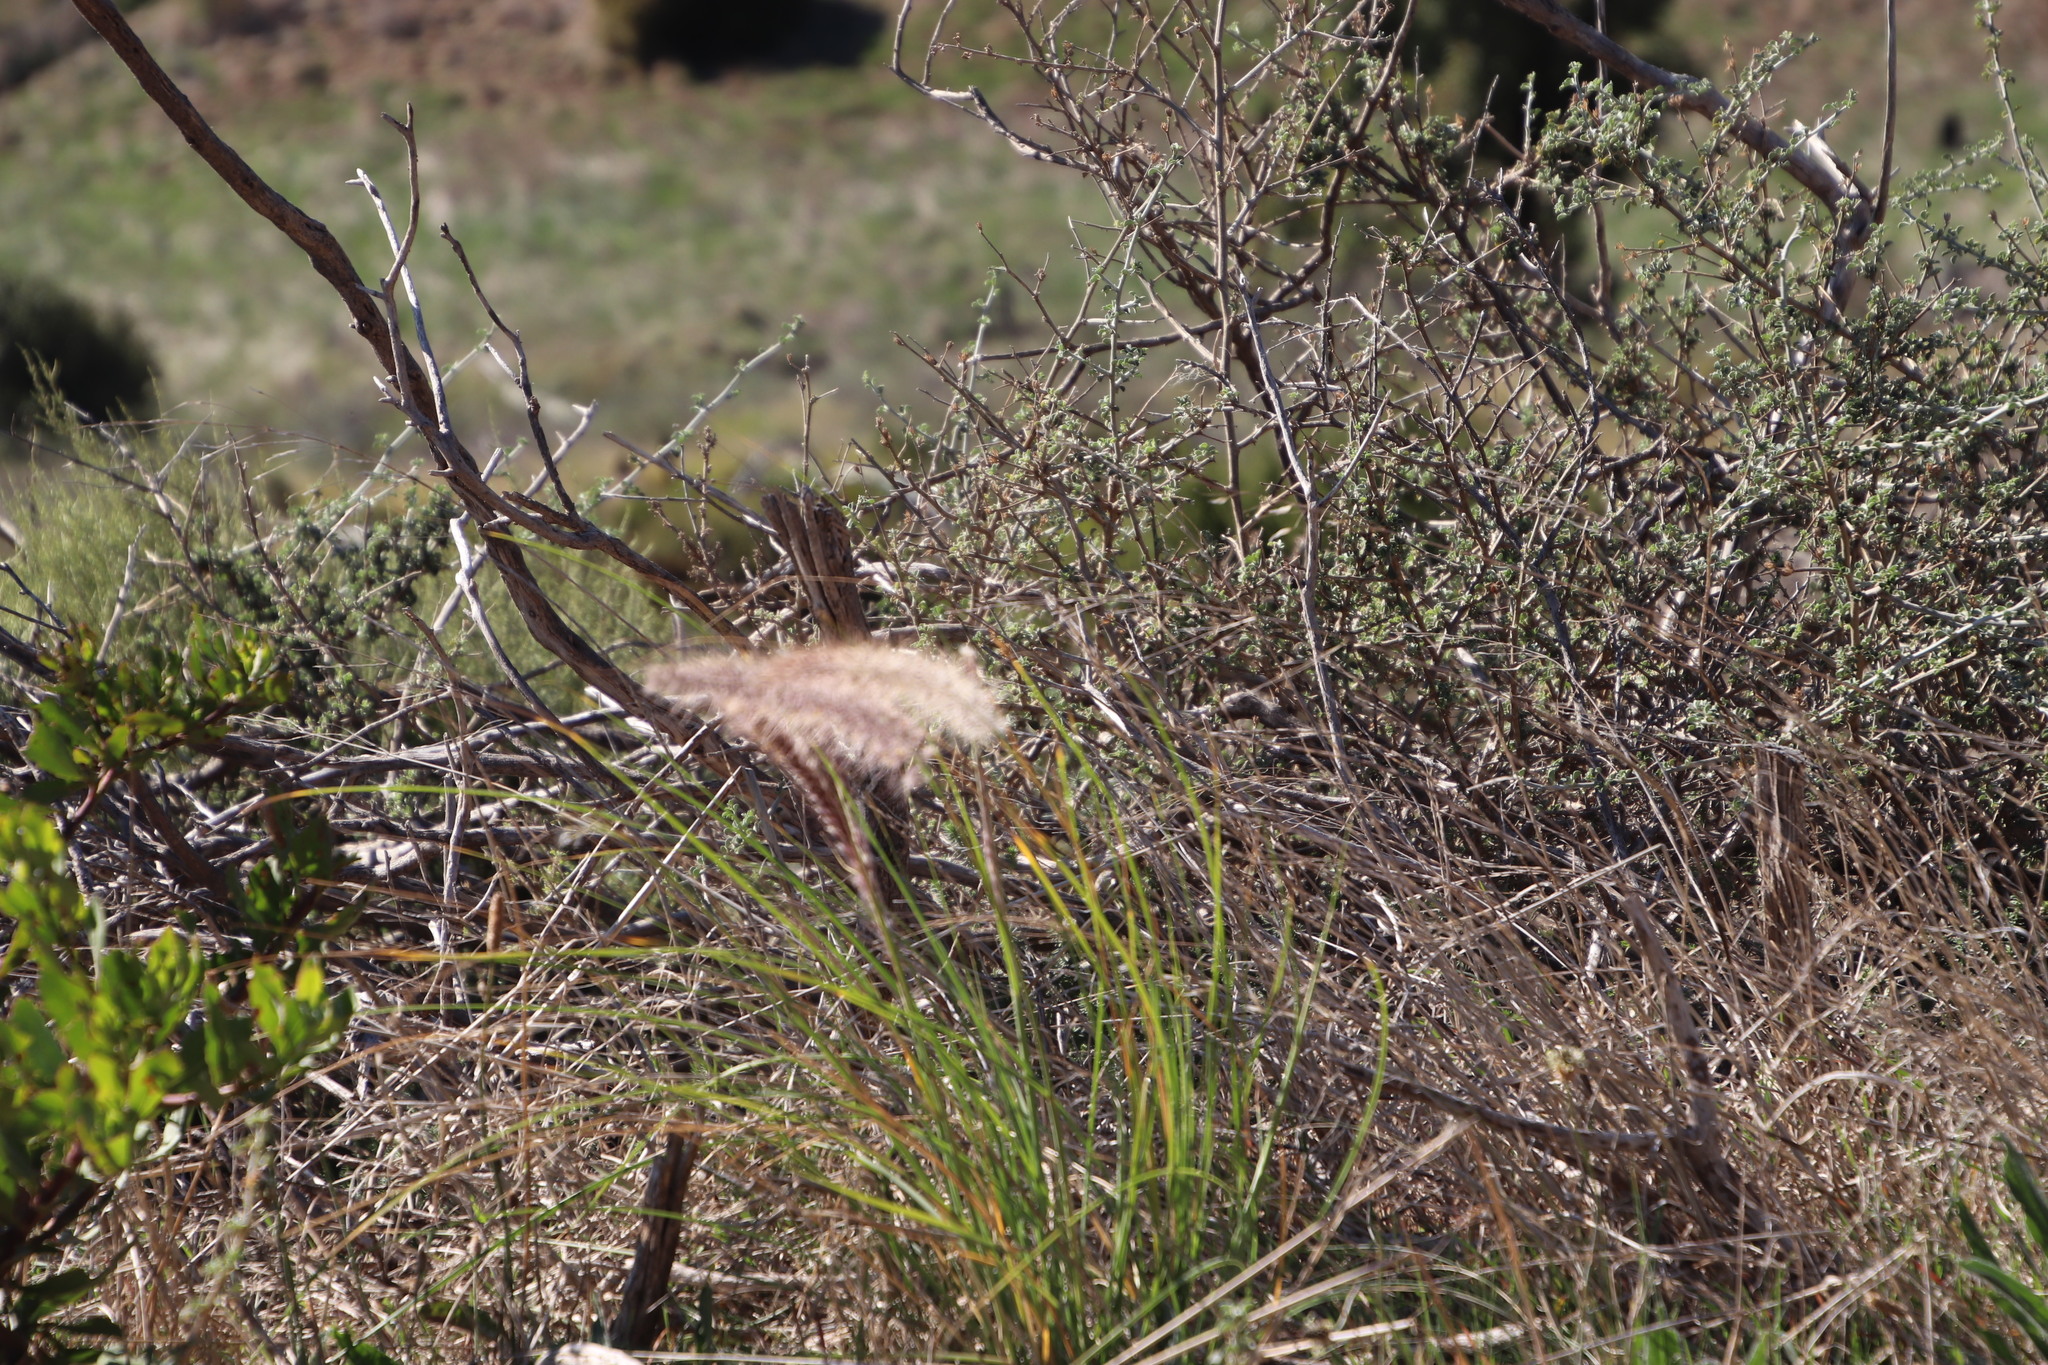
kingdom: Plantae
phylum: Tracheophyta
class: Liliopsida
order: Poales
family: Poaceae
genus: Cenchrus
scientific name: Cenchrus setaceus
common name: Crimson fountaingrass
